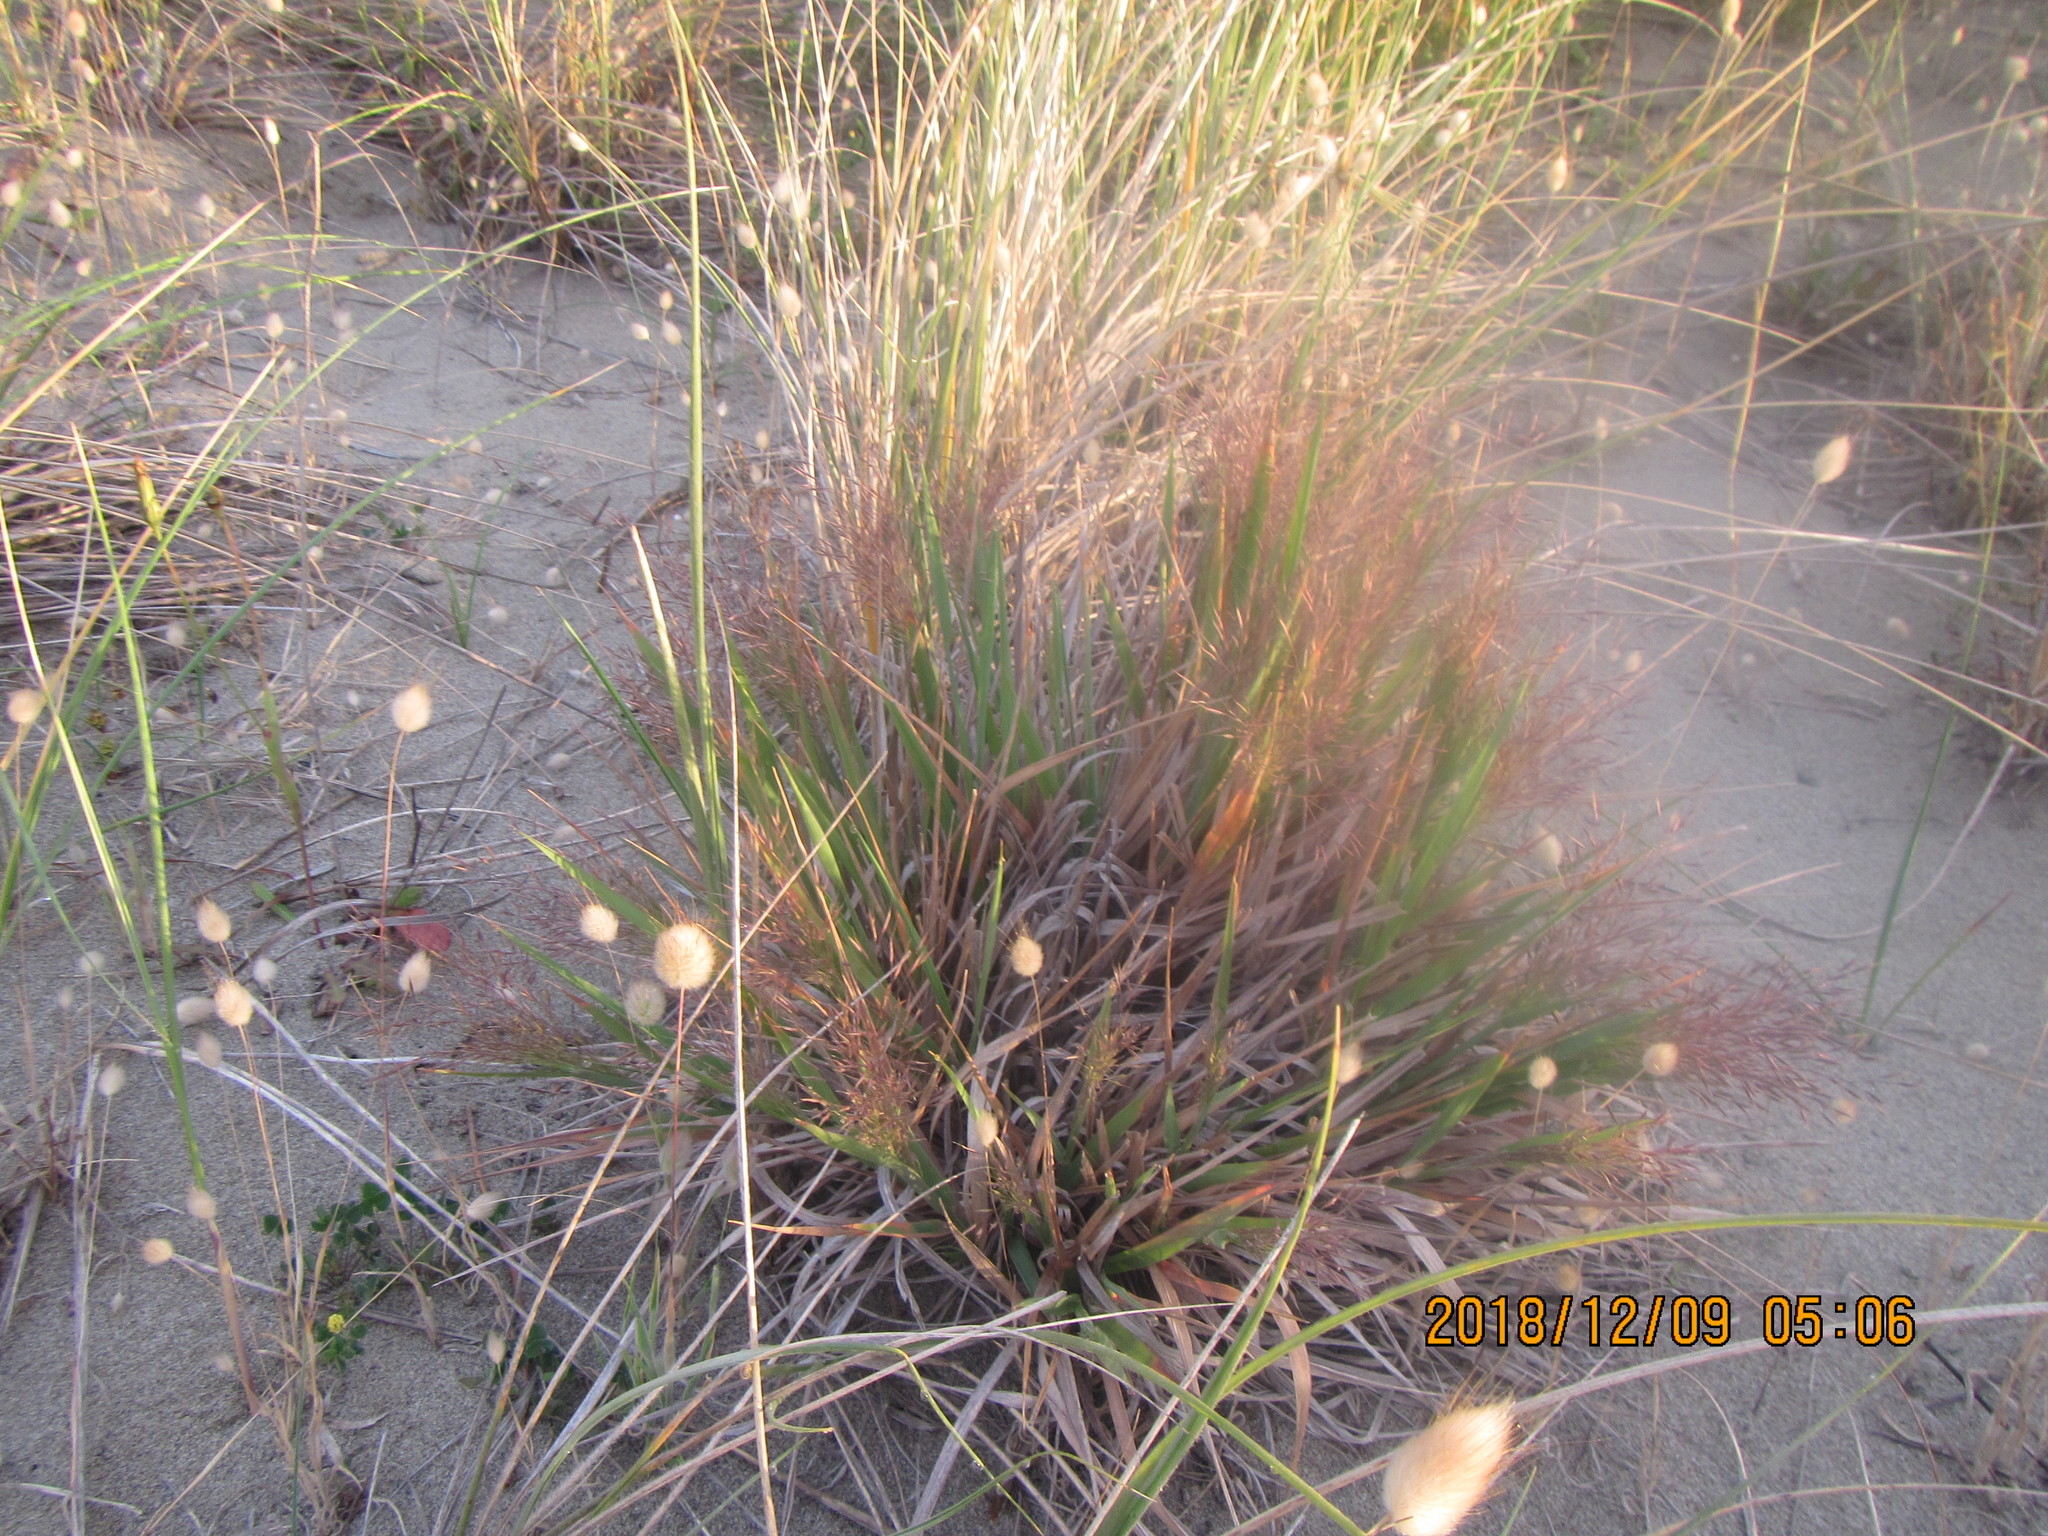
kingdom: Plantae
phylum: Tracheophyta
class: Liliopsida
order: Poales
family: Poaceae
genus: Lachnagrostis
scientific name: Lachnagrostis billardierei
